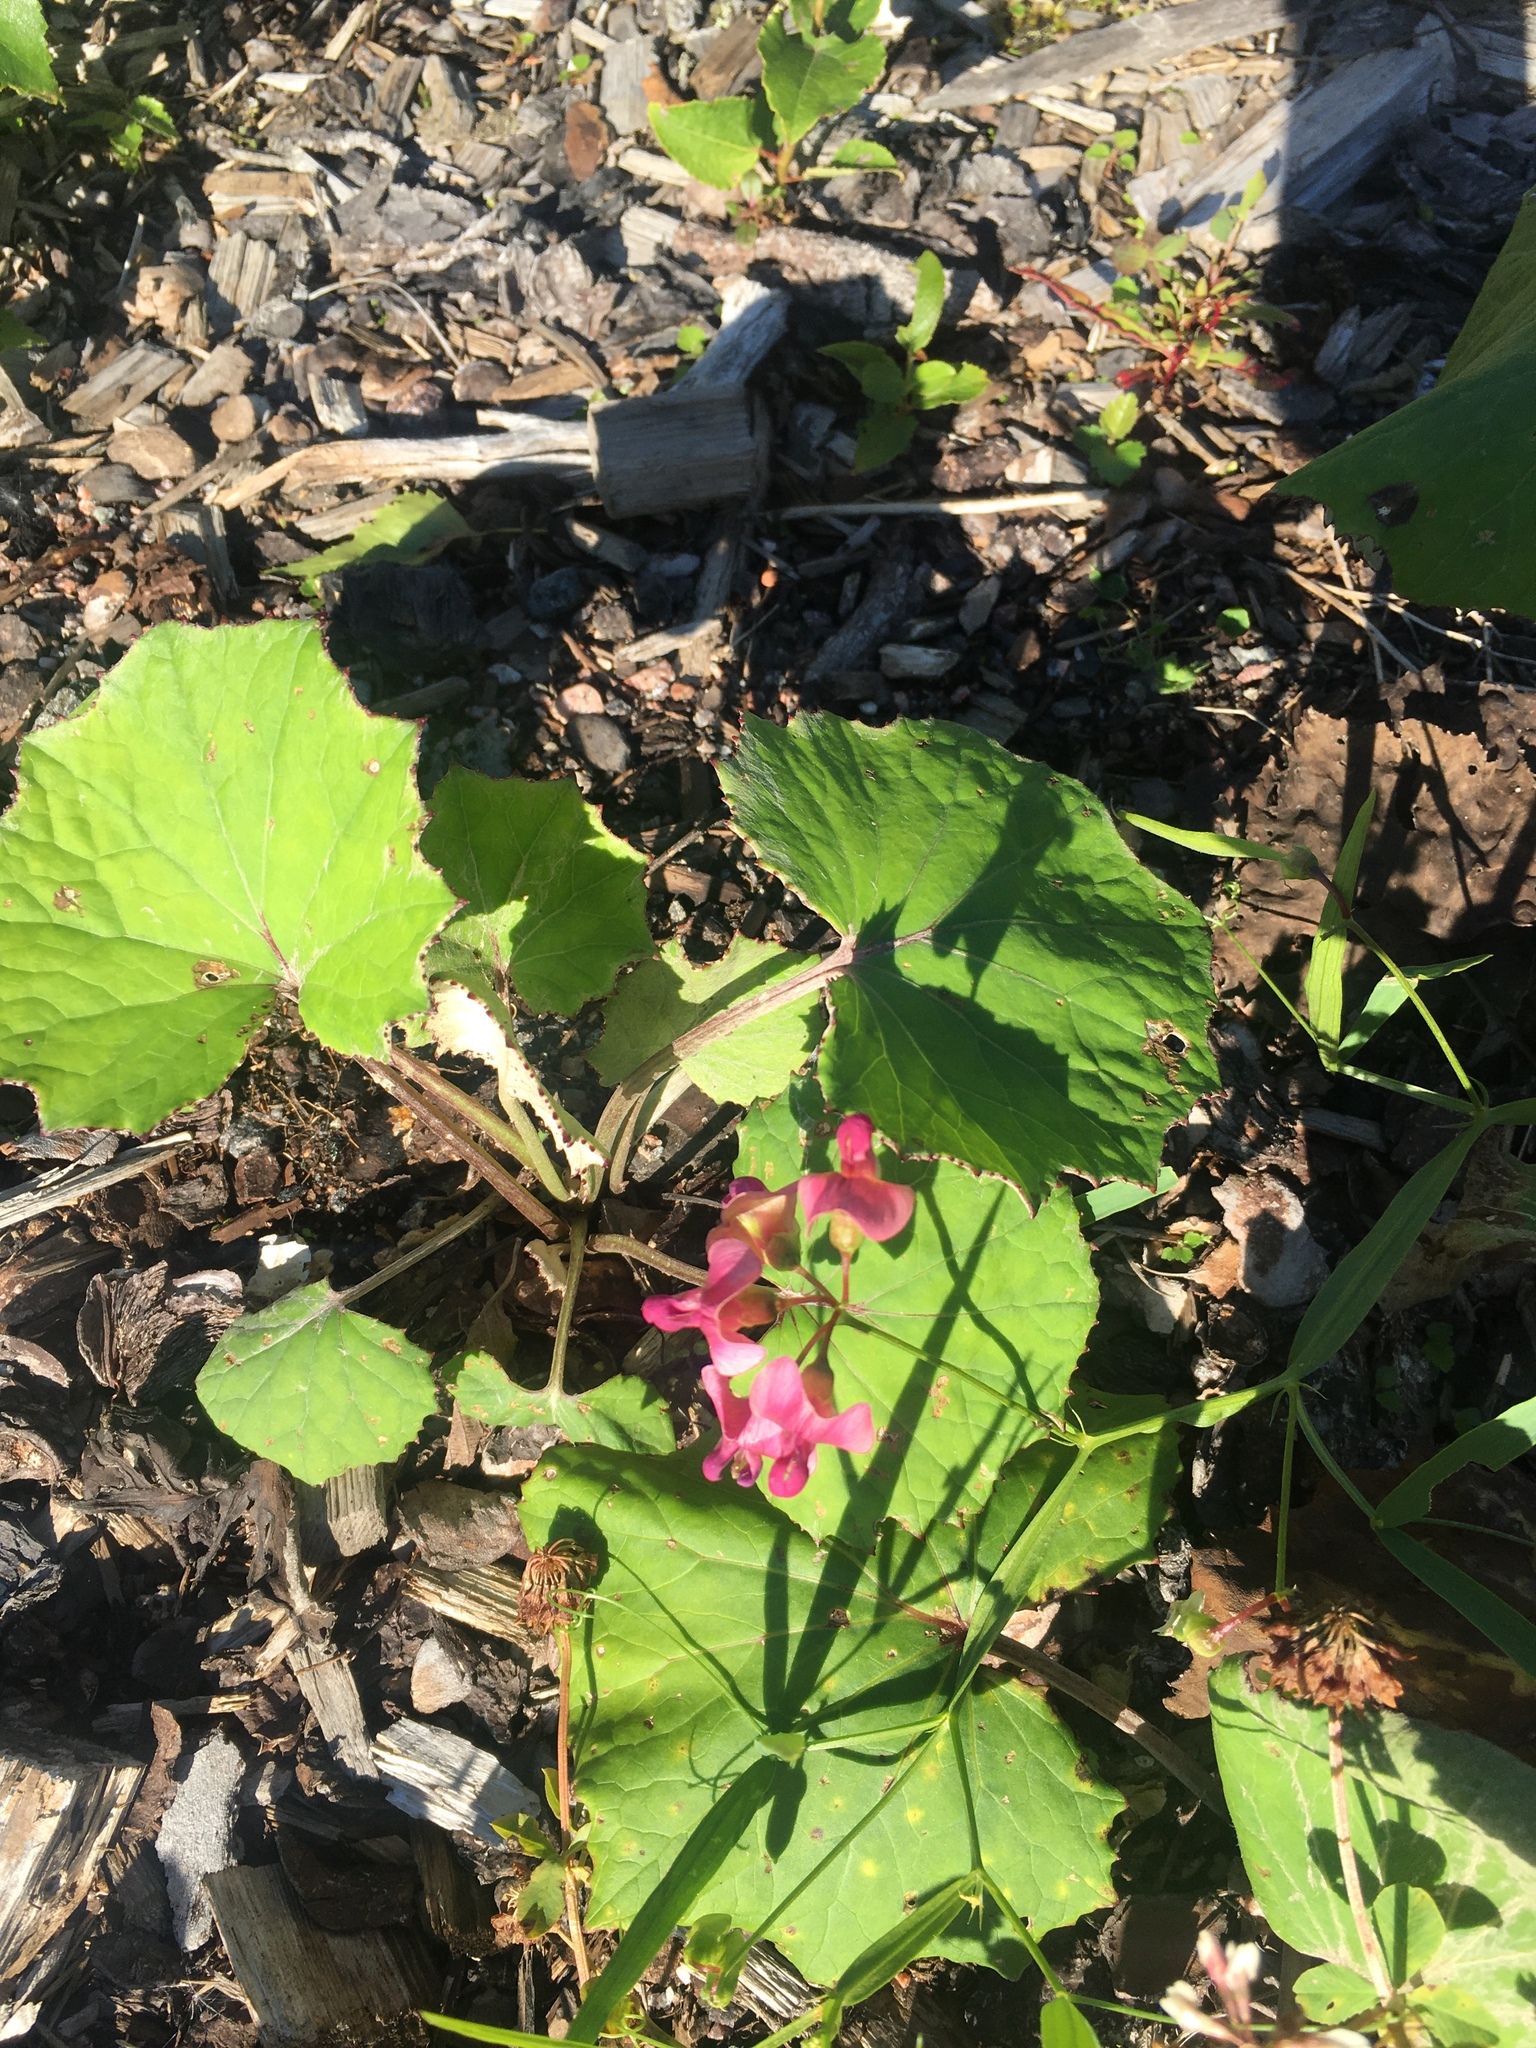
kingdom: Plantae
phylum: Tracheophyta
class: Magnoliopsida
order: Fabales
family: Fabaceae
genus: Lathyrus
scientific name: Lathyrus sylvestris
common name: Flat pea
